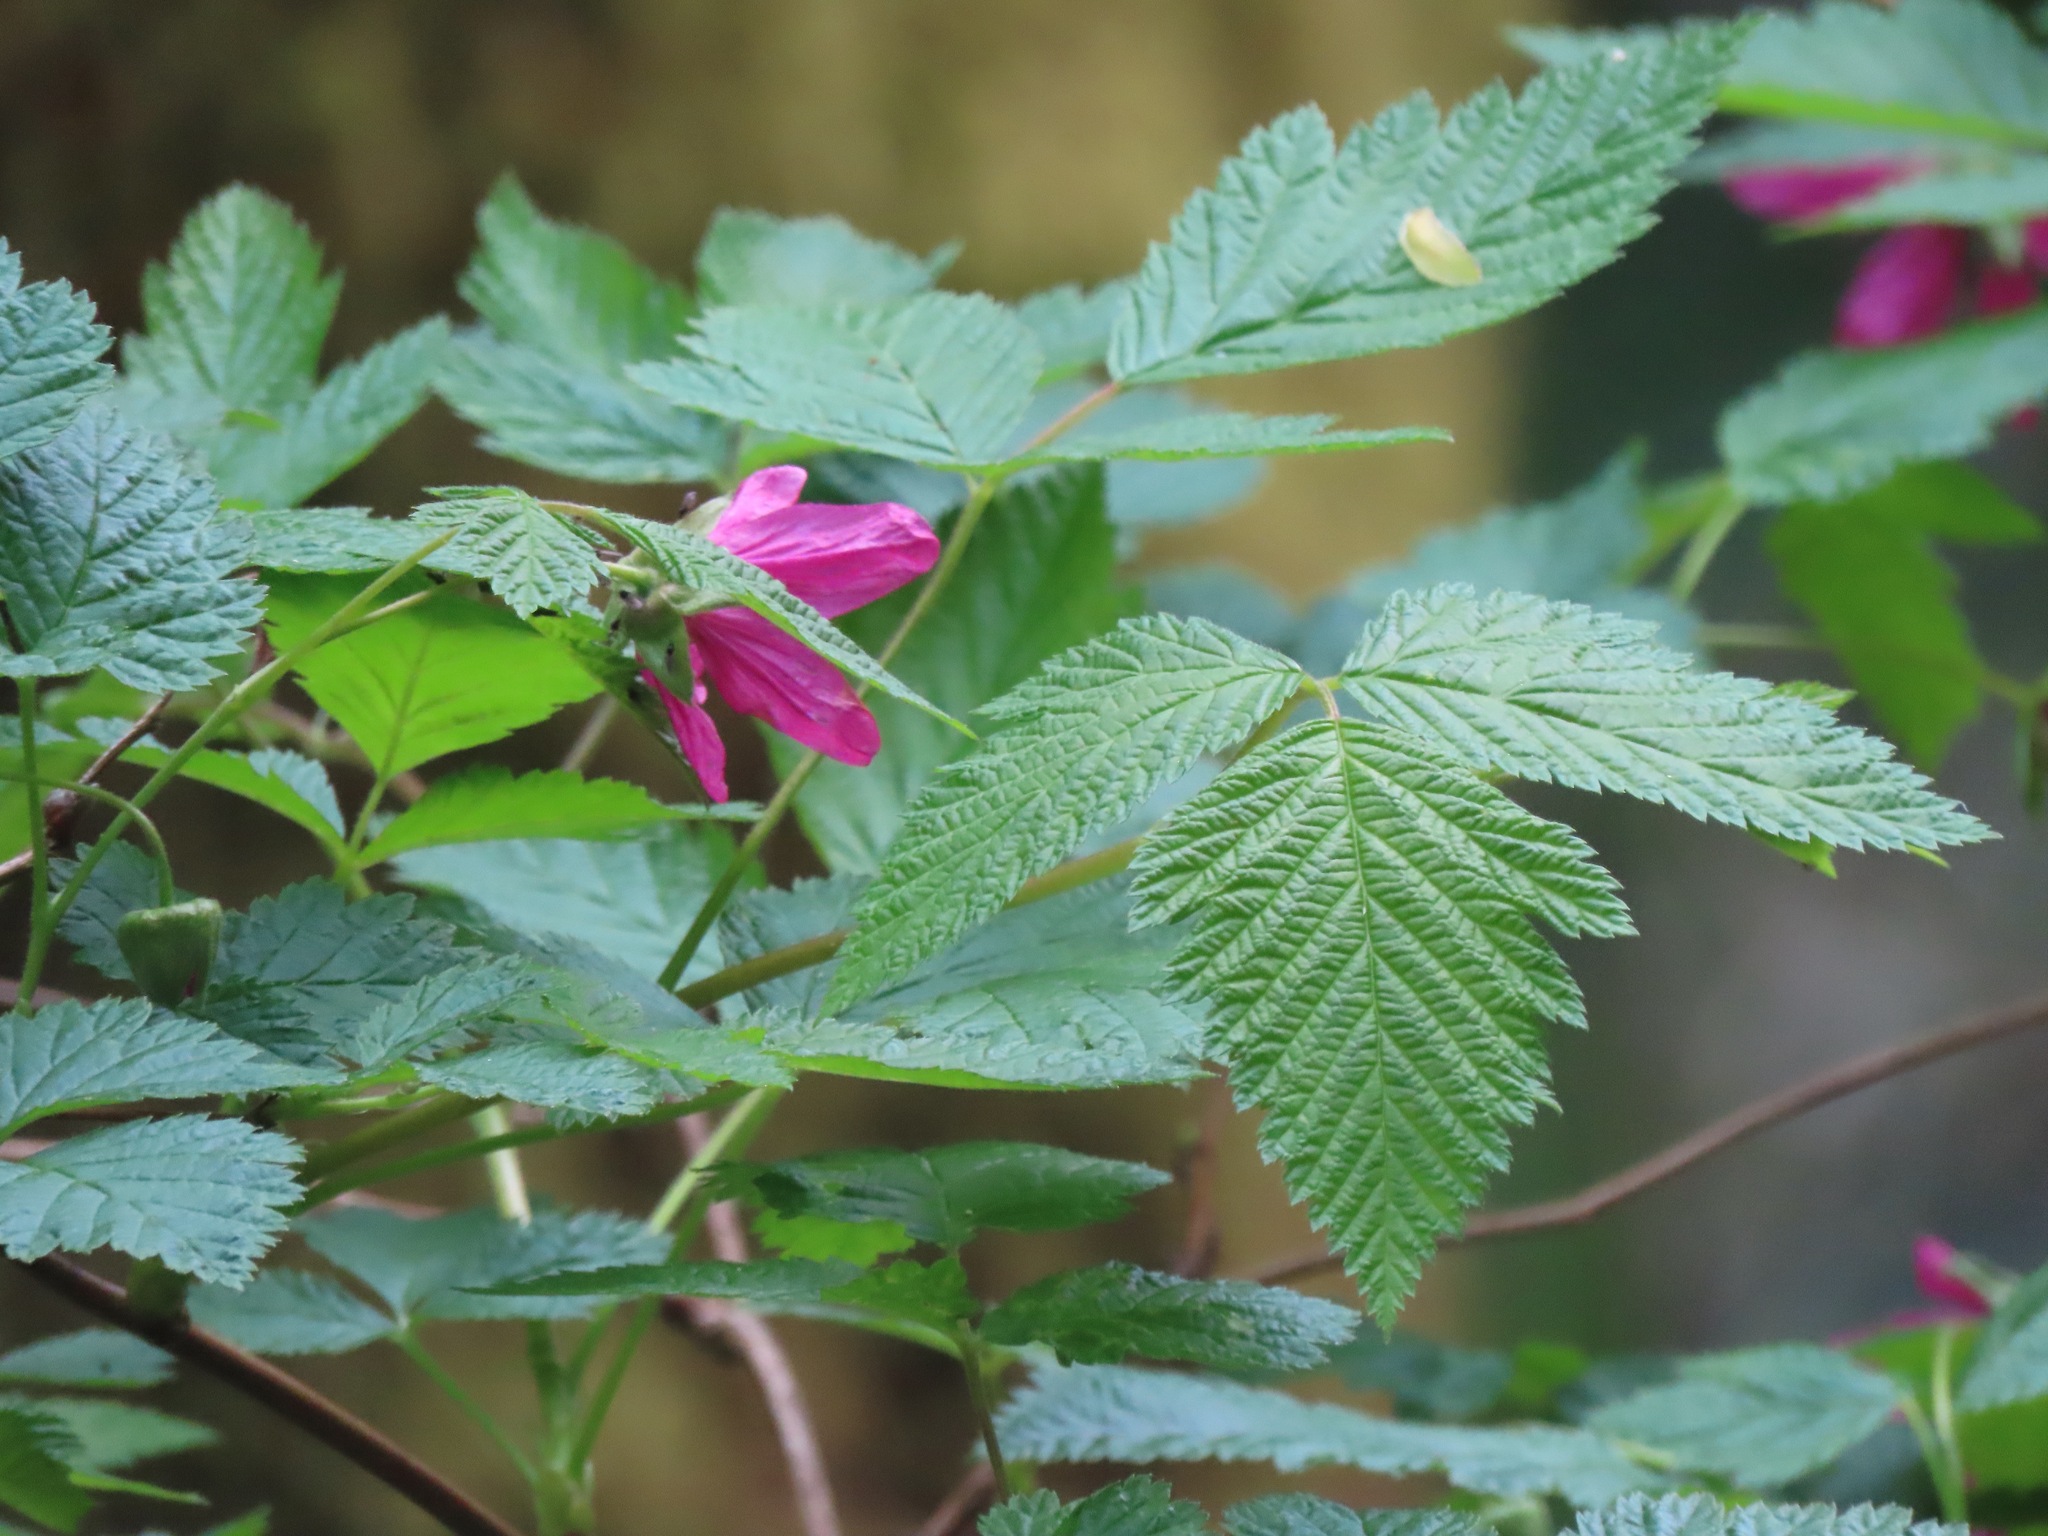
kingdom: Plantae
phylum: Tracheophyta
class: Magnoliopsida
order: Rosales
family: Rosaceae
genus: Rubus
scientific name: Rubus spectabilis
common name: Salmonberry
